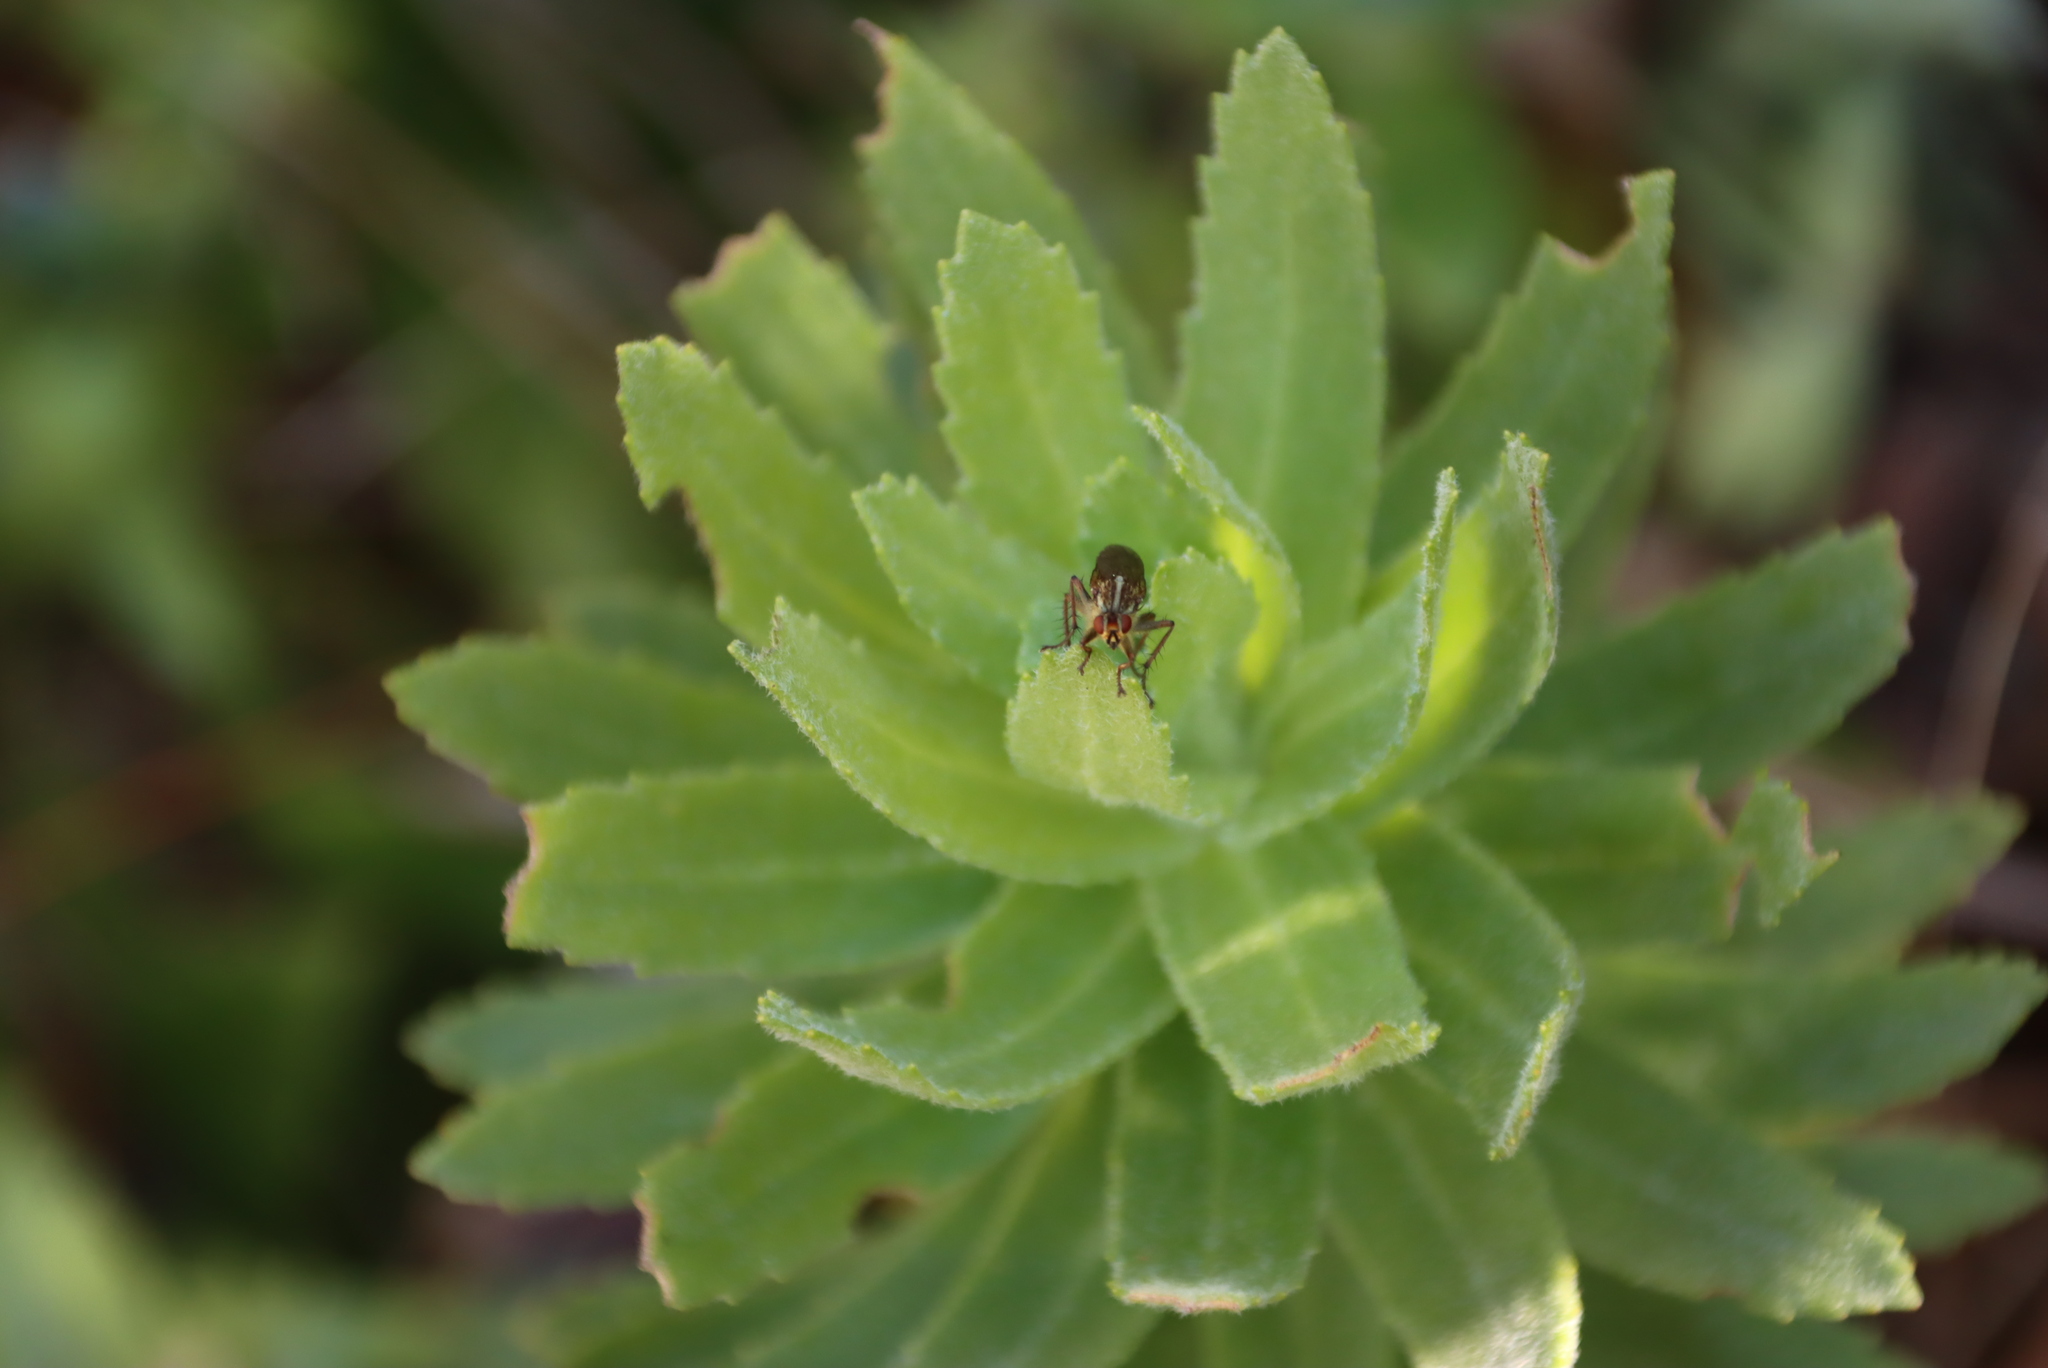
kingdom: Plantae
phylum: Tracheophyta
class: Magnoliopsida
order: Asterales
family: Asteraceae
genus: Osmitopsis
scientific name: Osmitopsis asteriscoides
